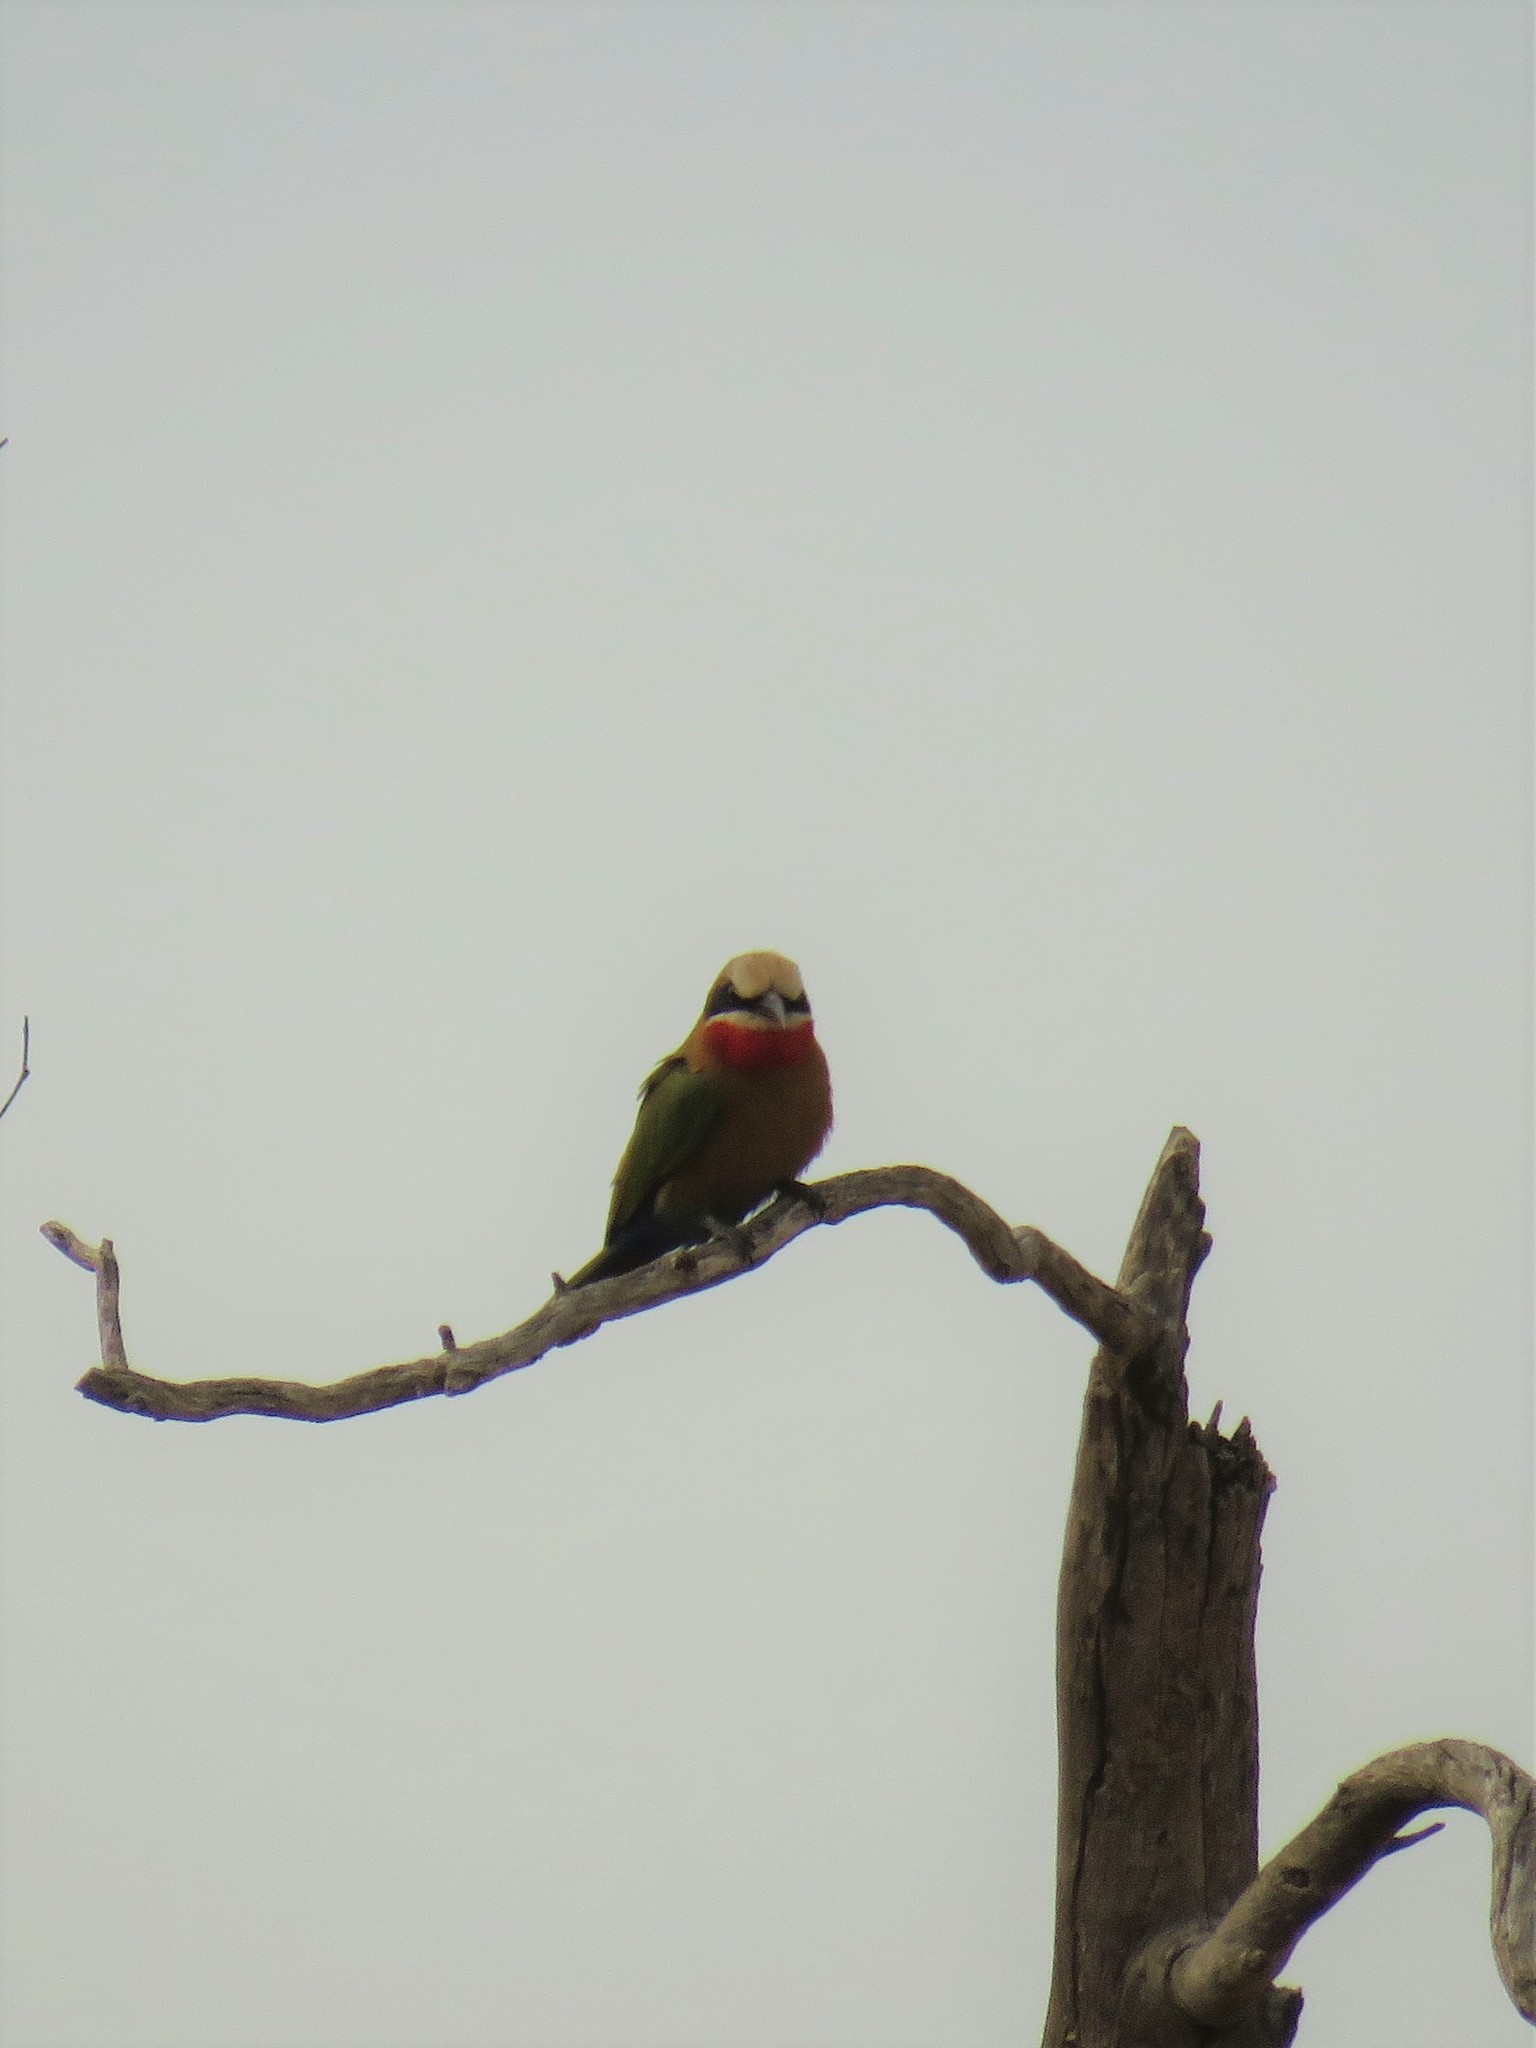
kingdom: Animalia
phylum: Chordata
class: Aves
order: Coraciiformes
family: Meropidae
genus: Merops
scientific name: Merops bullockoides
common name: White-fronted bee-eater
